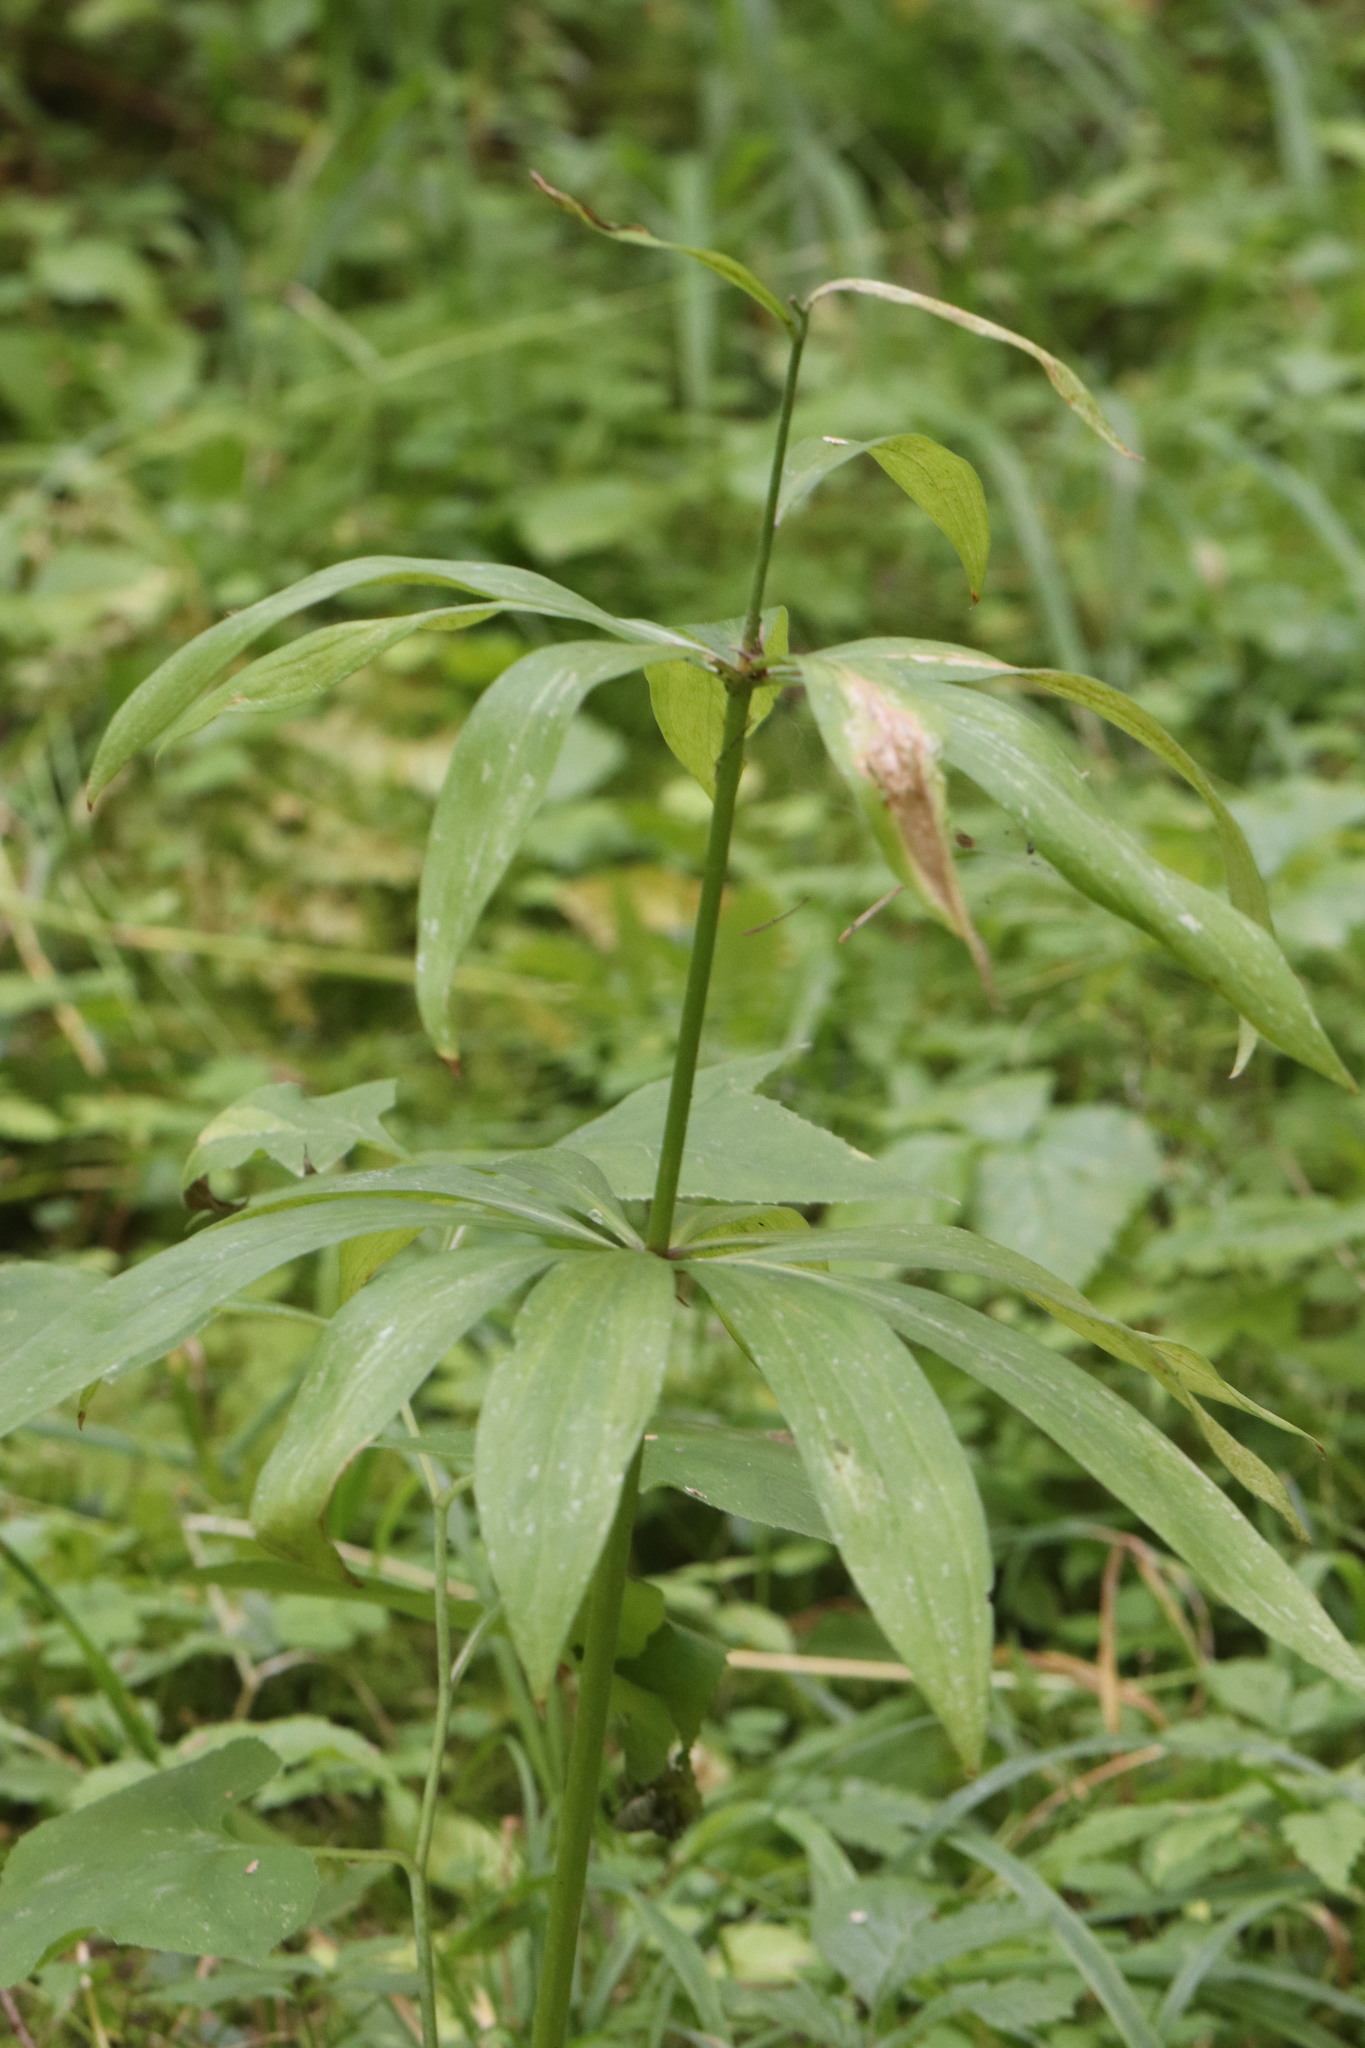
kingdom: Plantae
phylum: Tracheophyta
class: Liliopsida
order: Liliales
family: Liliaceae
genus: Lilium
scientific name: Lilium martagon
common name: Martagon lily
